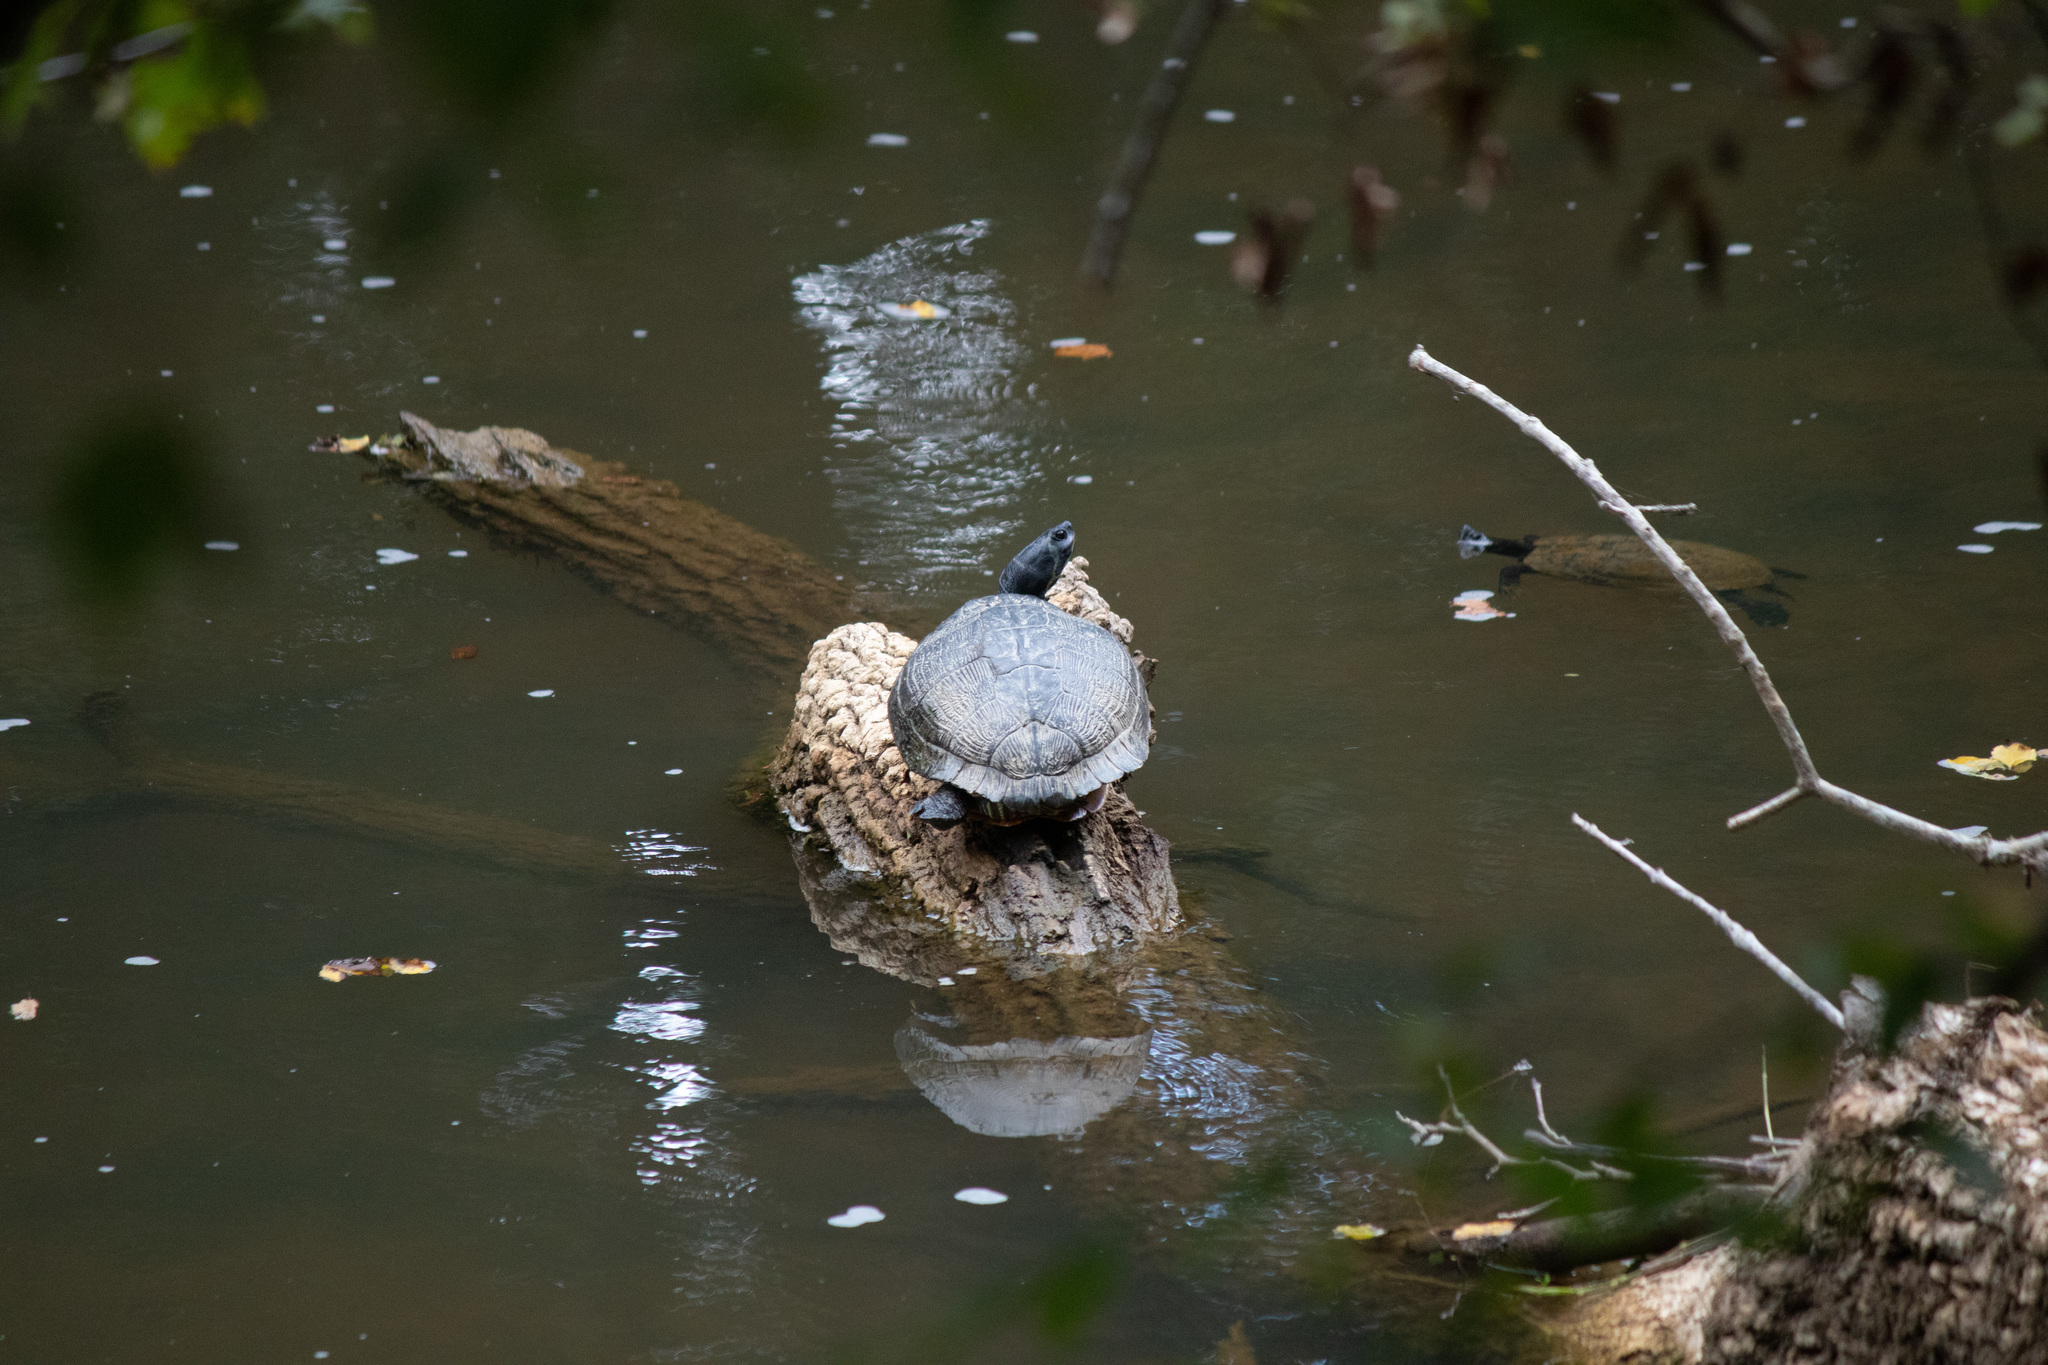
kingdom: Animalia
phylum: Chordata
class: Testudines
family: Emydidae
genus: Trachemys
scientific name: Trachemys scripta
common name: Slider
